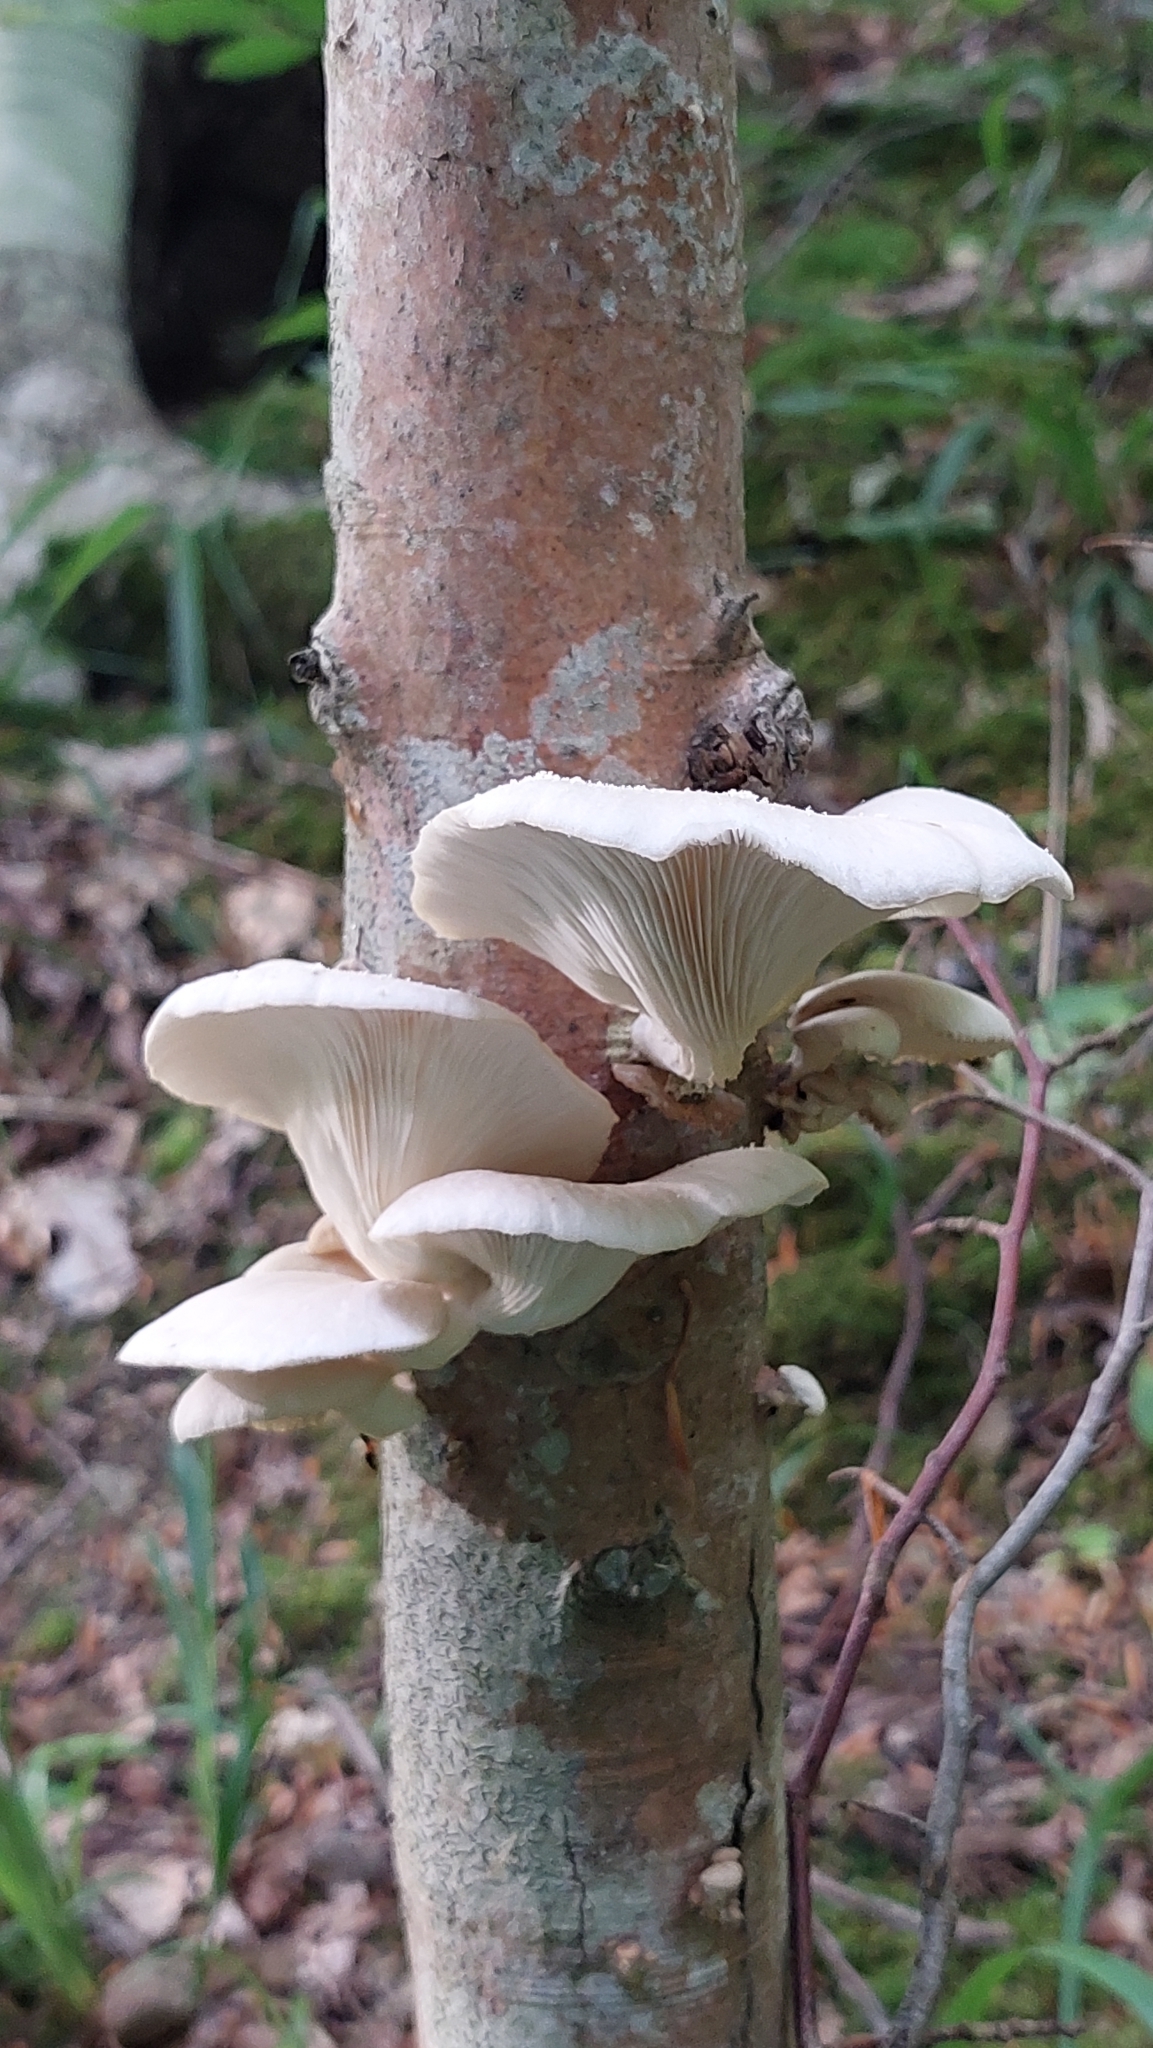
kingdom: Fungi
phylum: Basidiomycota
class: Agaricomycetes
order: Agaricales
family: Pleurotaceae
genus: Pleurotus
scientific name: Pleurotus pulmonarius
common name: Pale oyster
